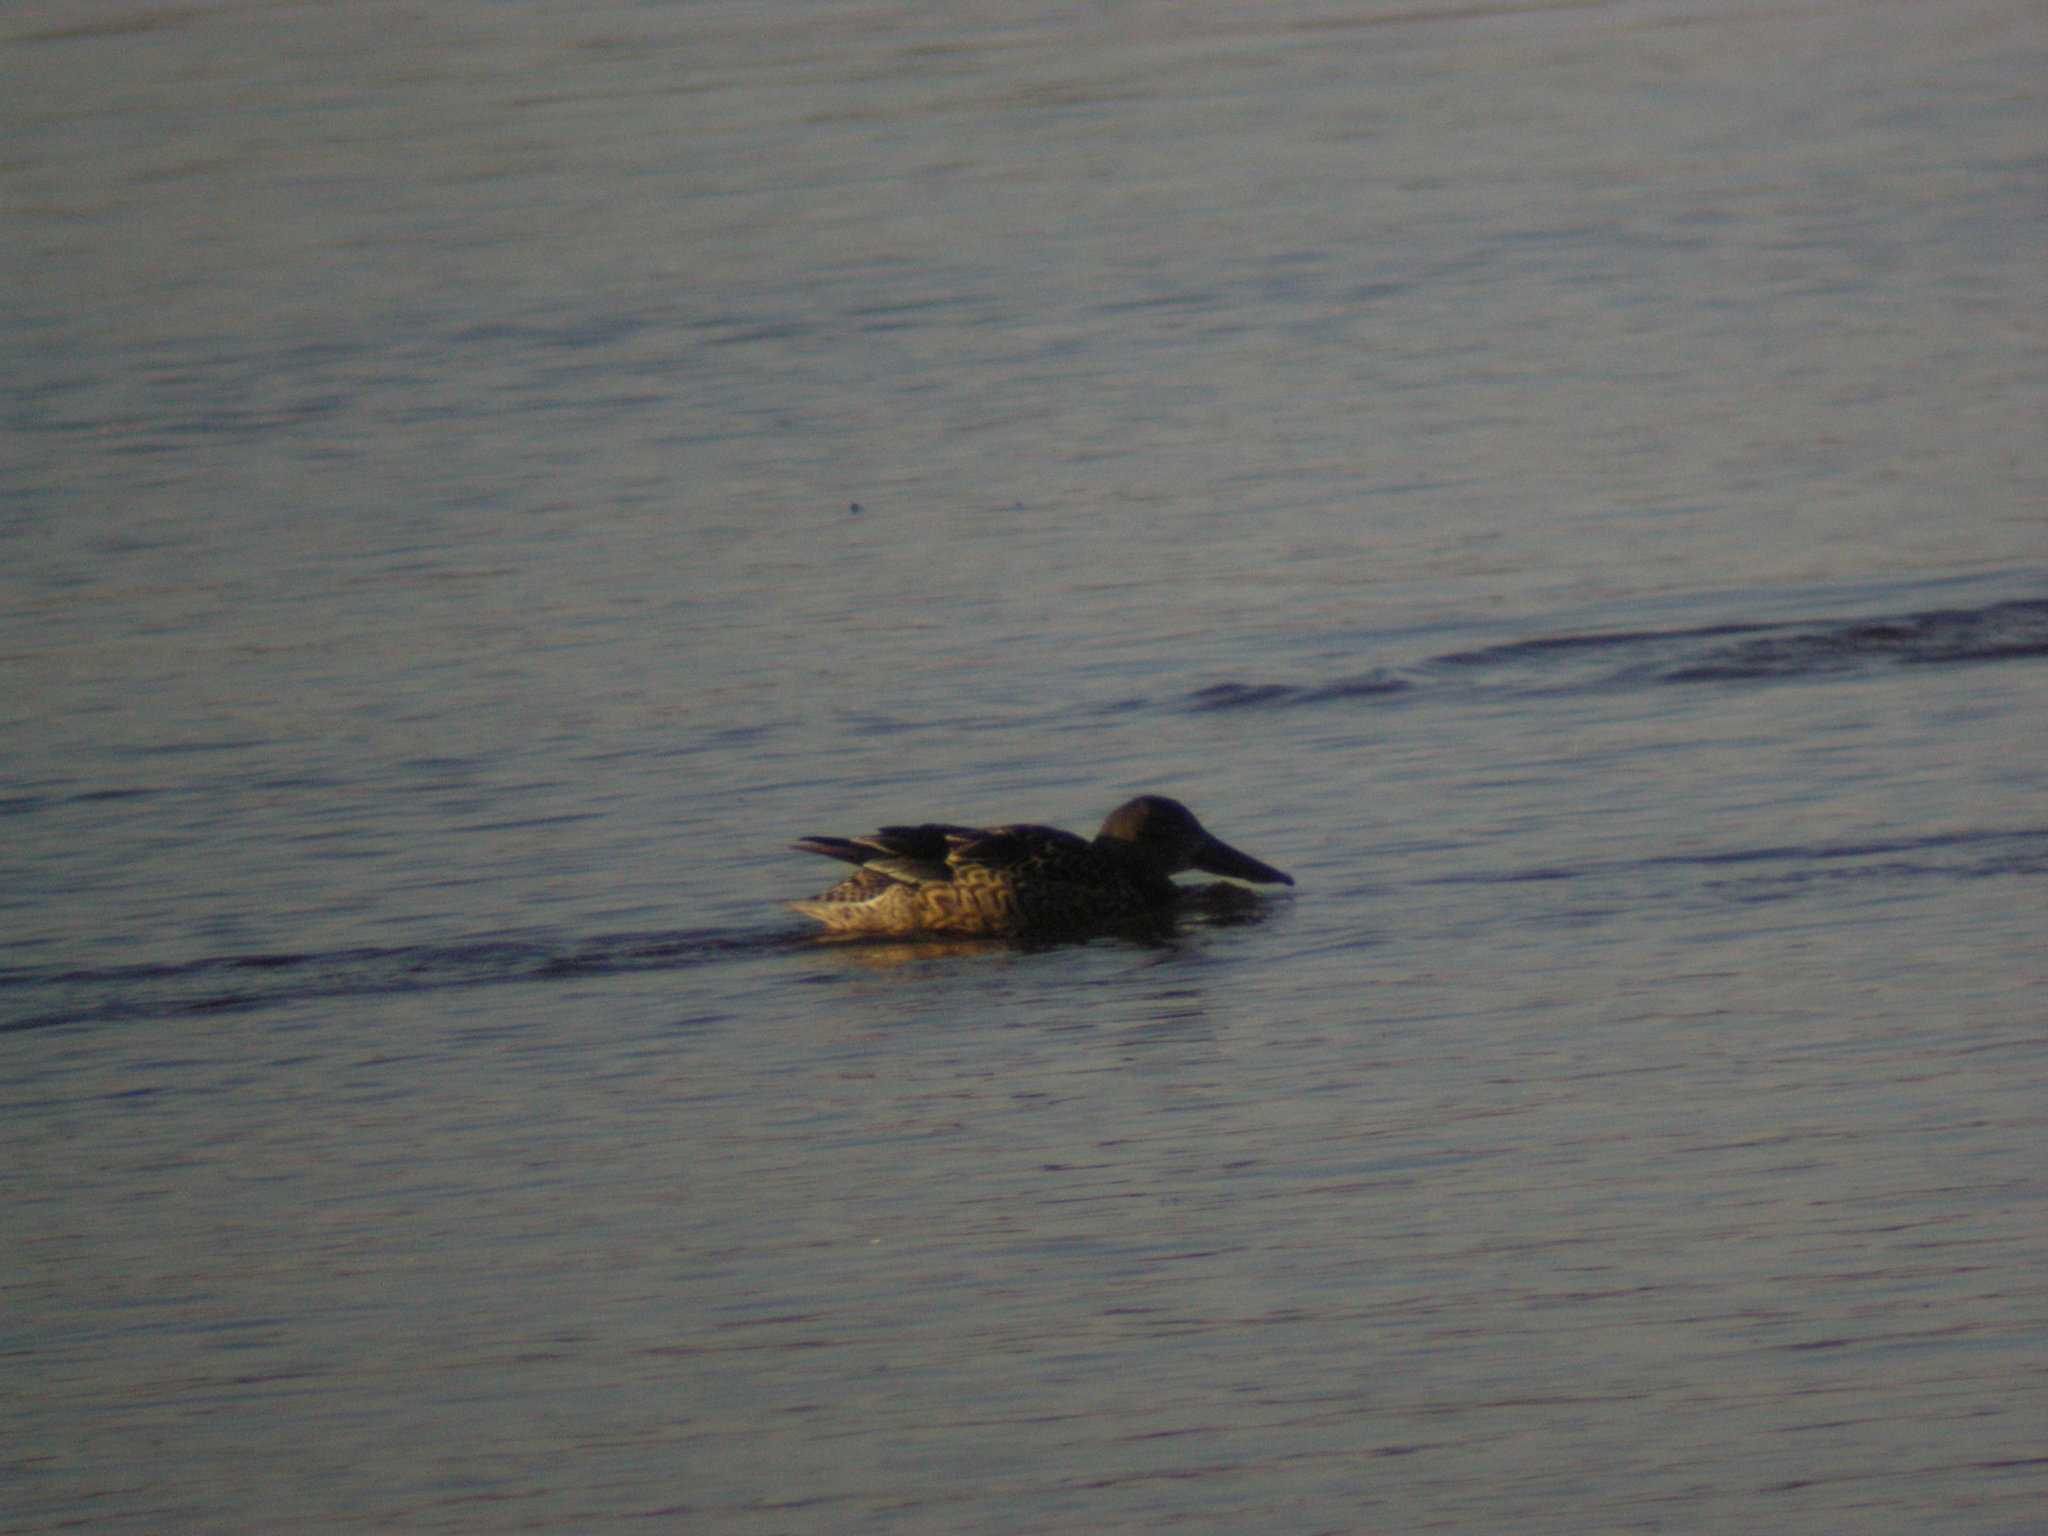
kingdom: Animalia
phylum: Chordata
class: Aves
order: Anseriformes
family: Anatidae
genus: Spatula
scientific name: Spatula clypeata
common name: Northern shoveler
